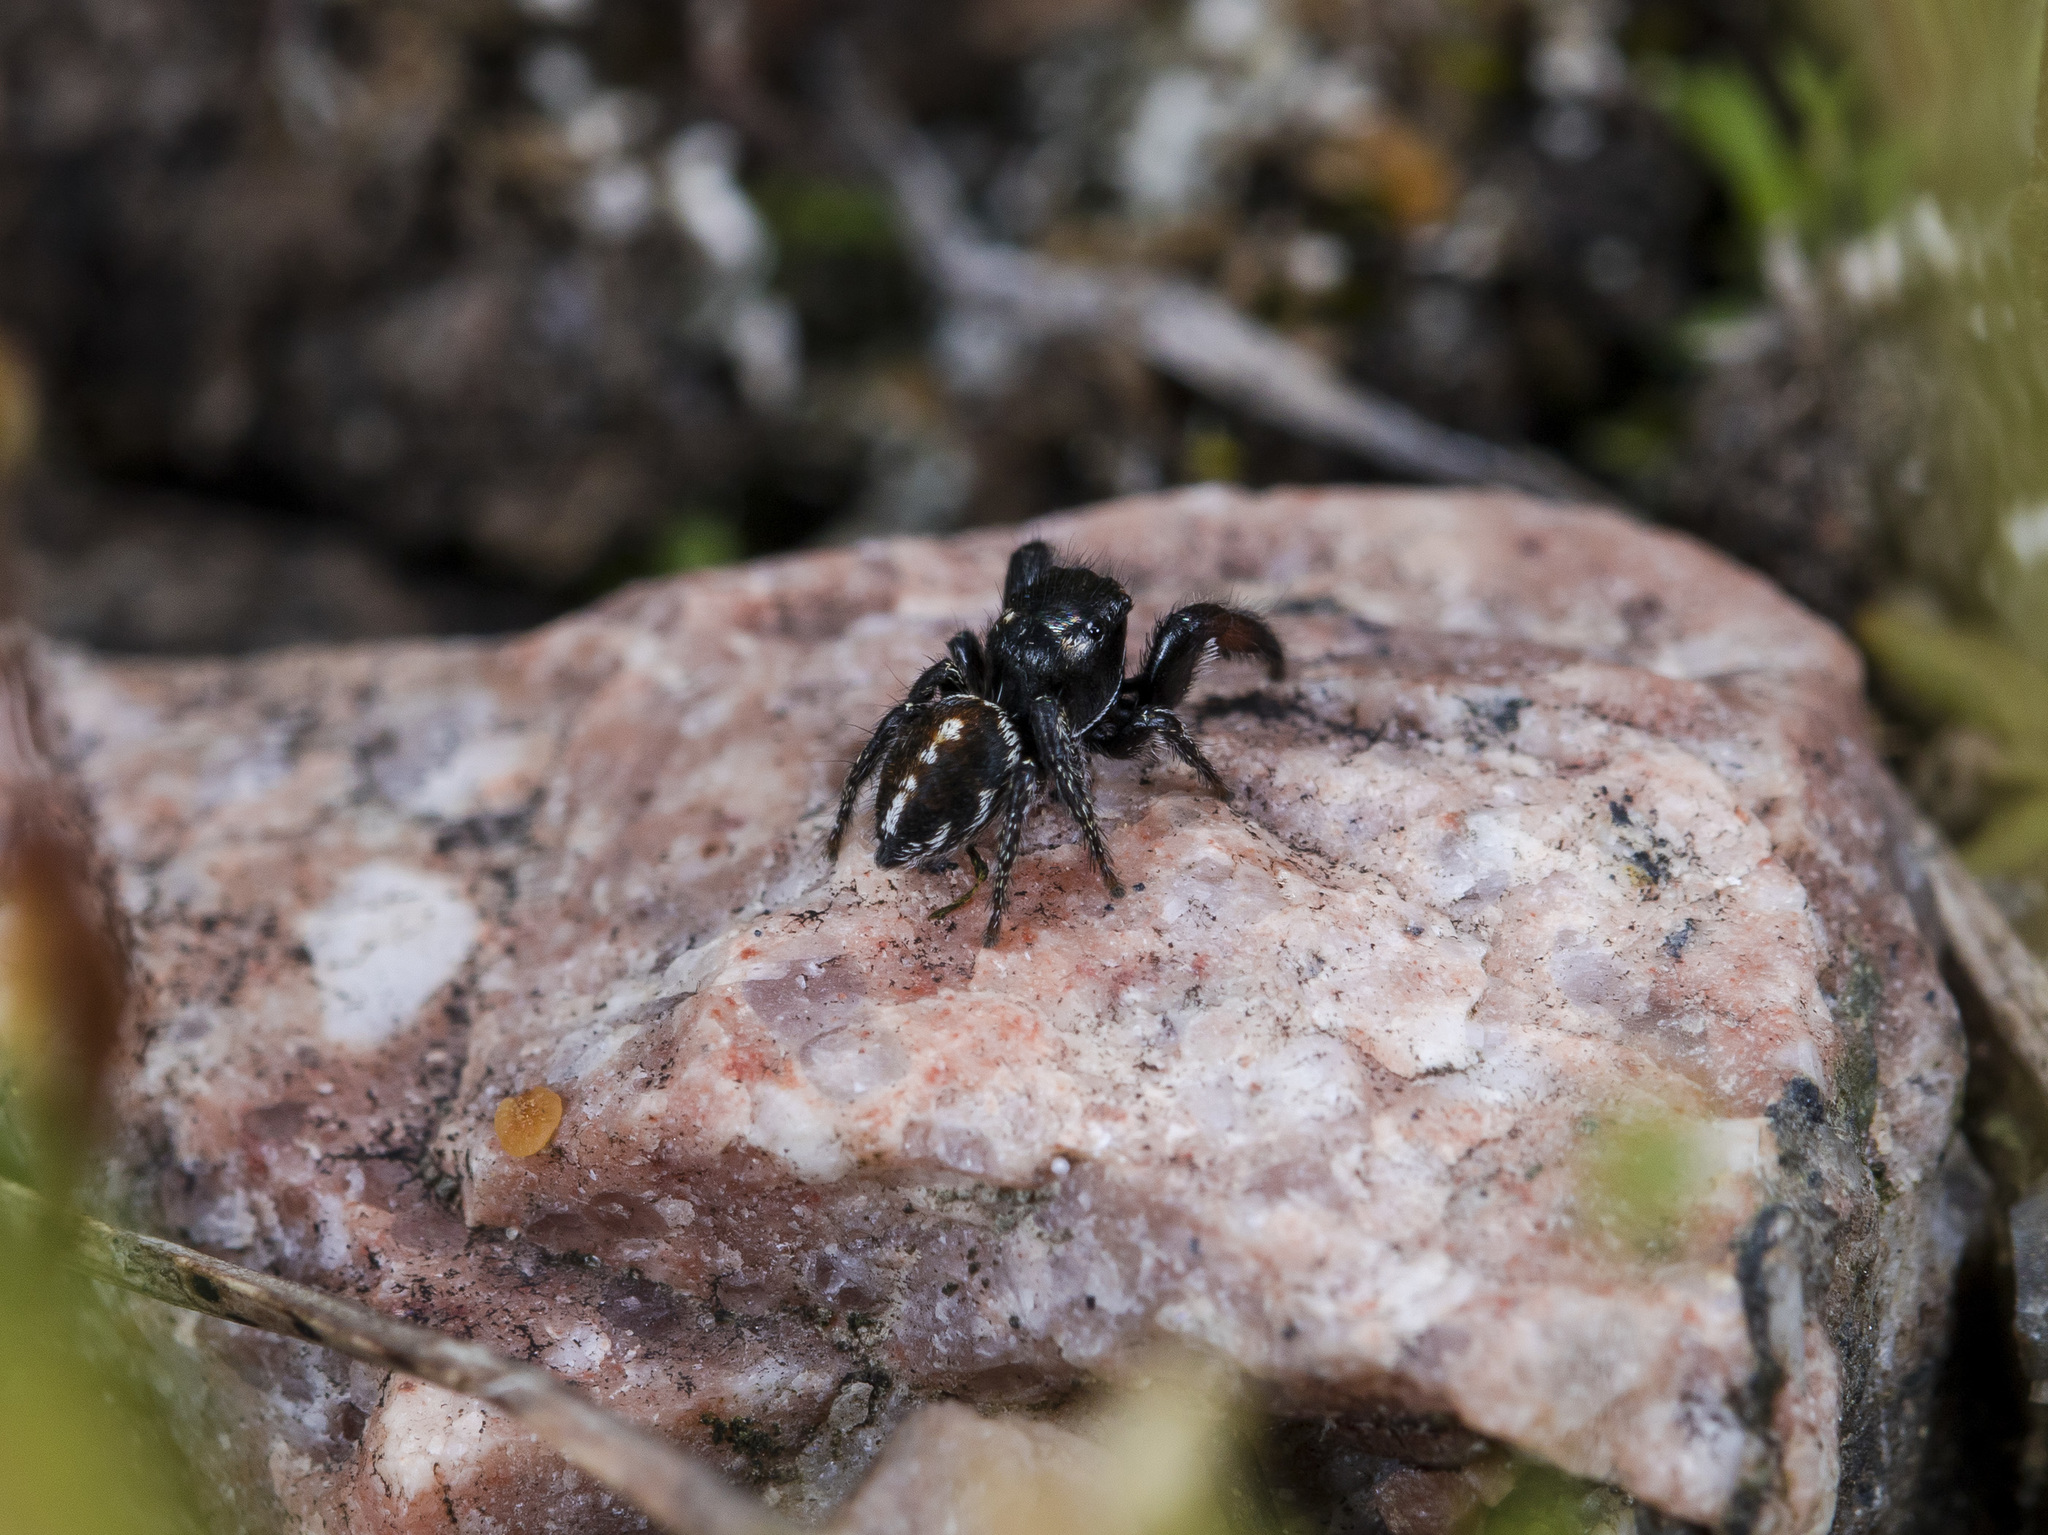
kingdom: Animalia
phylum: Arthropoda
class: Arachnida
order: Araneae
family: Salticidae
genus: Pellenes
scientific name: Pellenes allegrii
